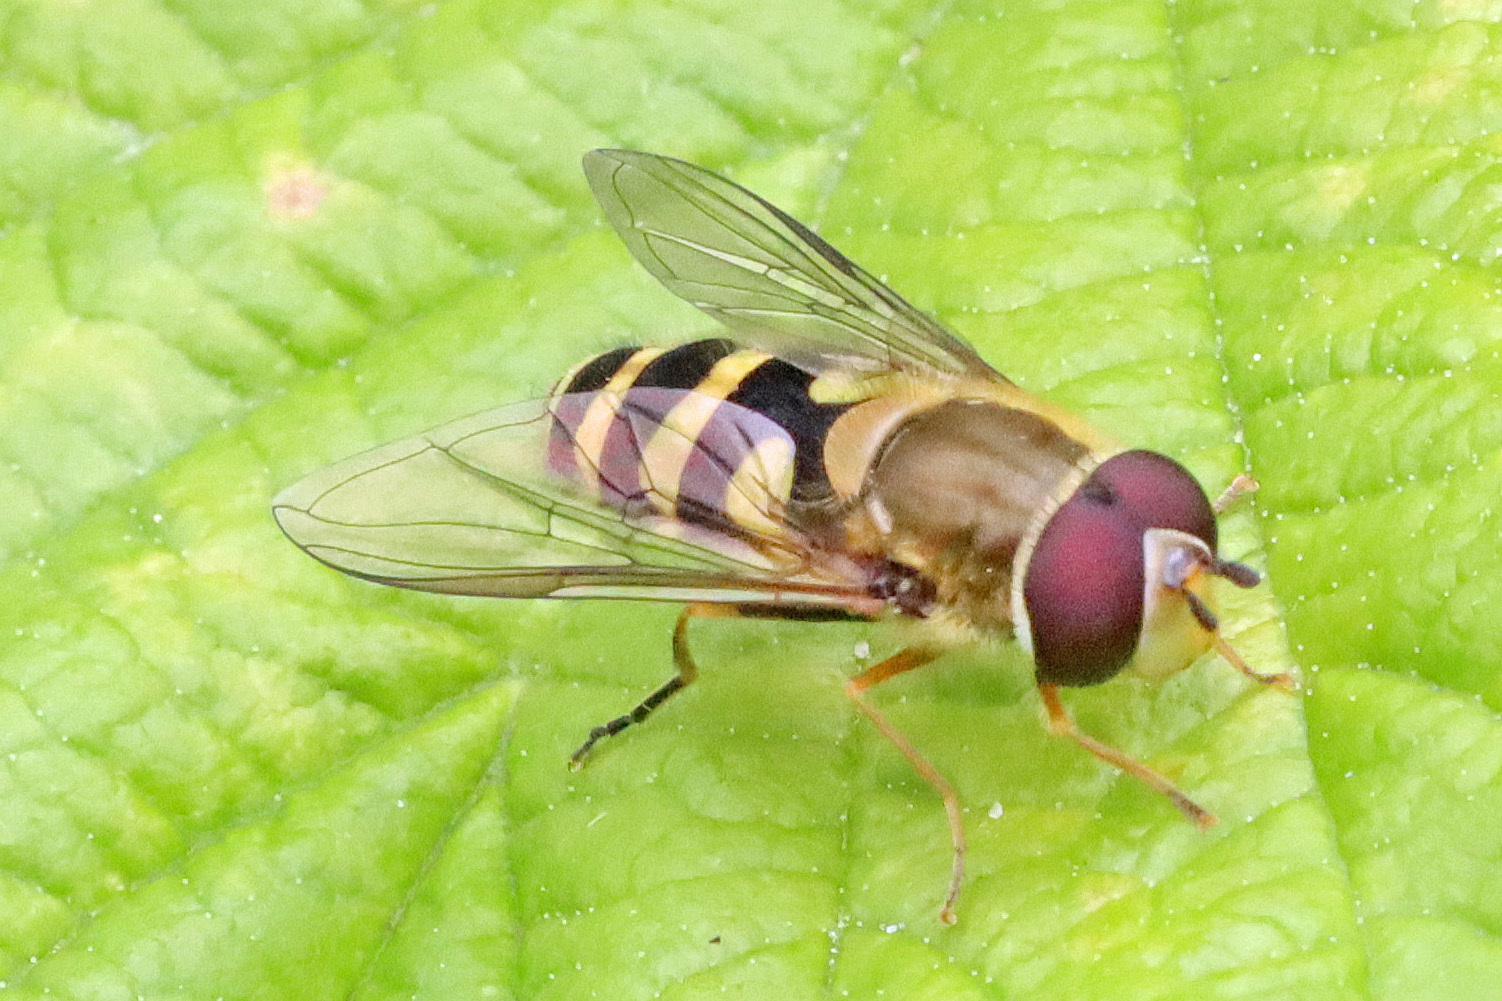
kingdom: Animalia
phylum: Arthropoda
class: Insecta
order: Diptera
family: Syrphidae
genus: Syrphus
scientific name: Syrphus
